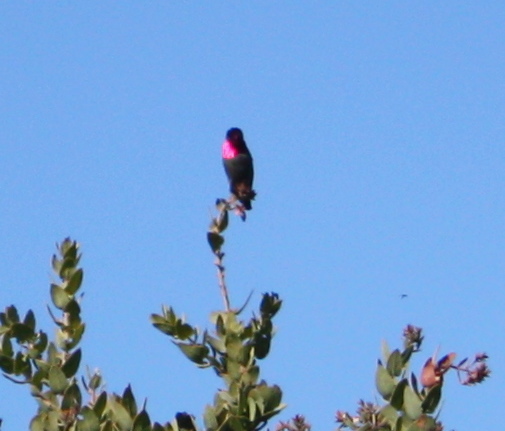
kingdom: Animalia
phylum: Chordata
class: Aves
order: Apodiformes
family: Trochilidae
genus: Calypte
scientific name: Calypte anna
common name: Anna's hummingbird
